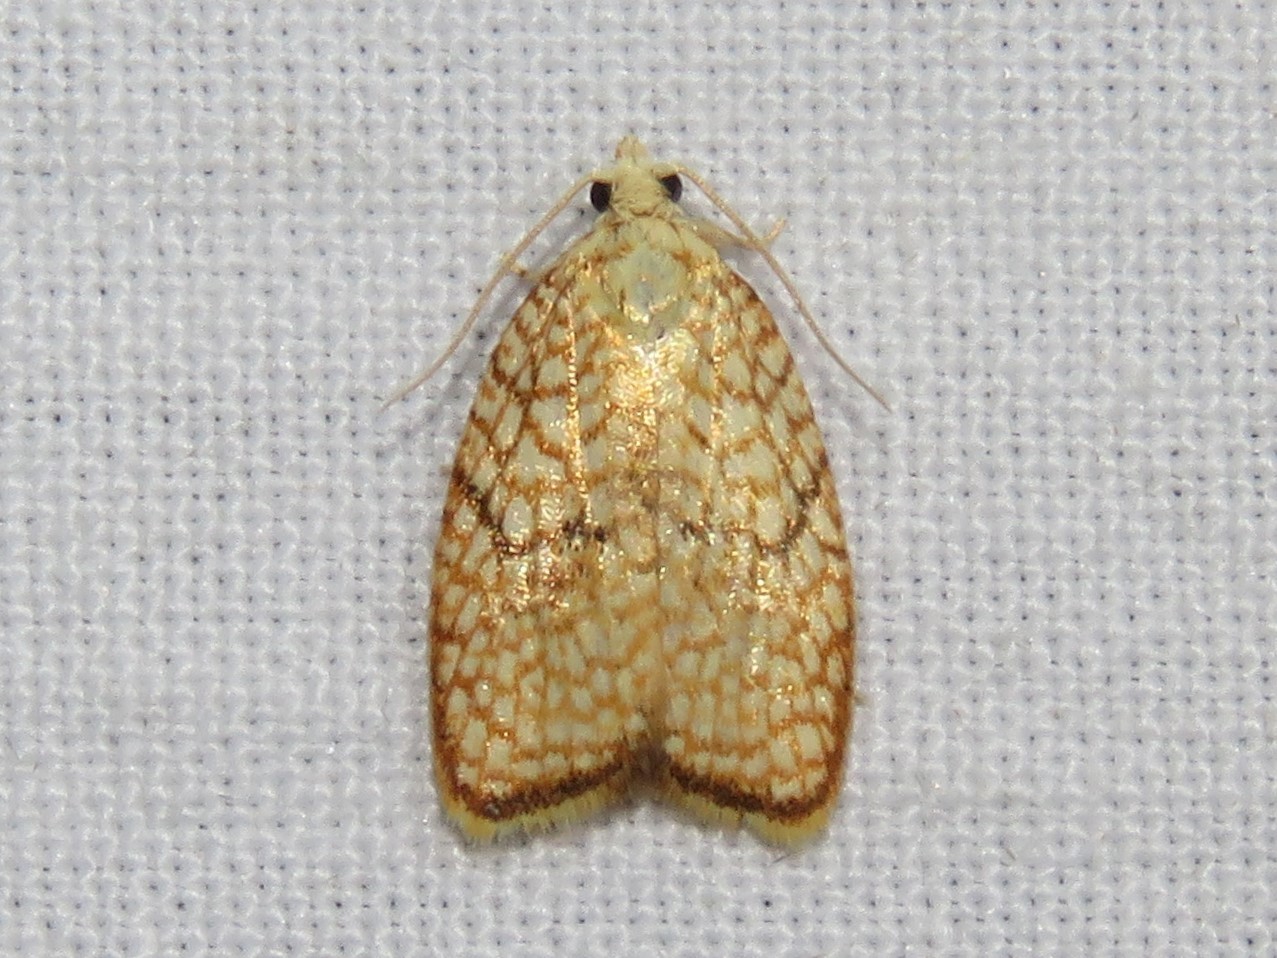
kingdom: Animalia
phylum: Arthropoda
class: Insecta
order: Lepidoptera
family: Tortricidae
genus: Acleris
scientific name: Acleris forsskaleana
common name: Maple button
